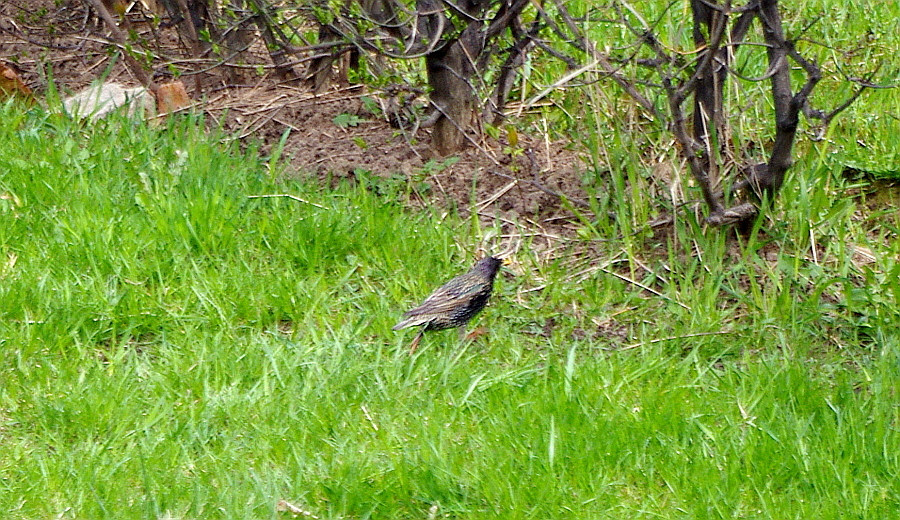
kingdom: Animalia
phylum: Chordata
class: Aves
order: Passeriformes
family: Sturnidae
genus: Sturnus
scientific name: Sturnus vulgaris
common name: Common starling
